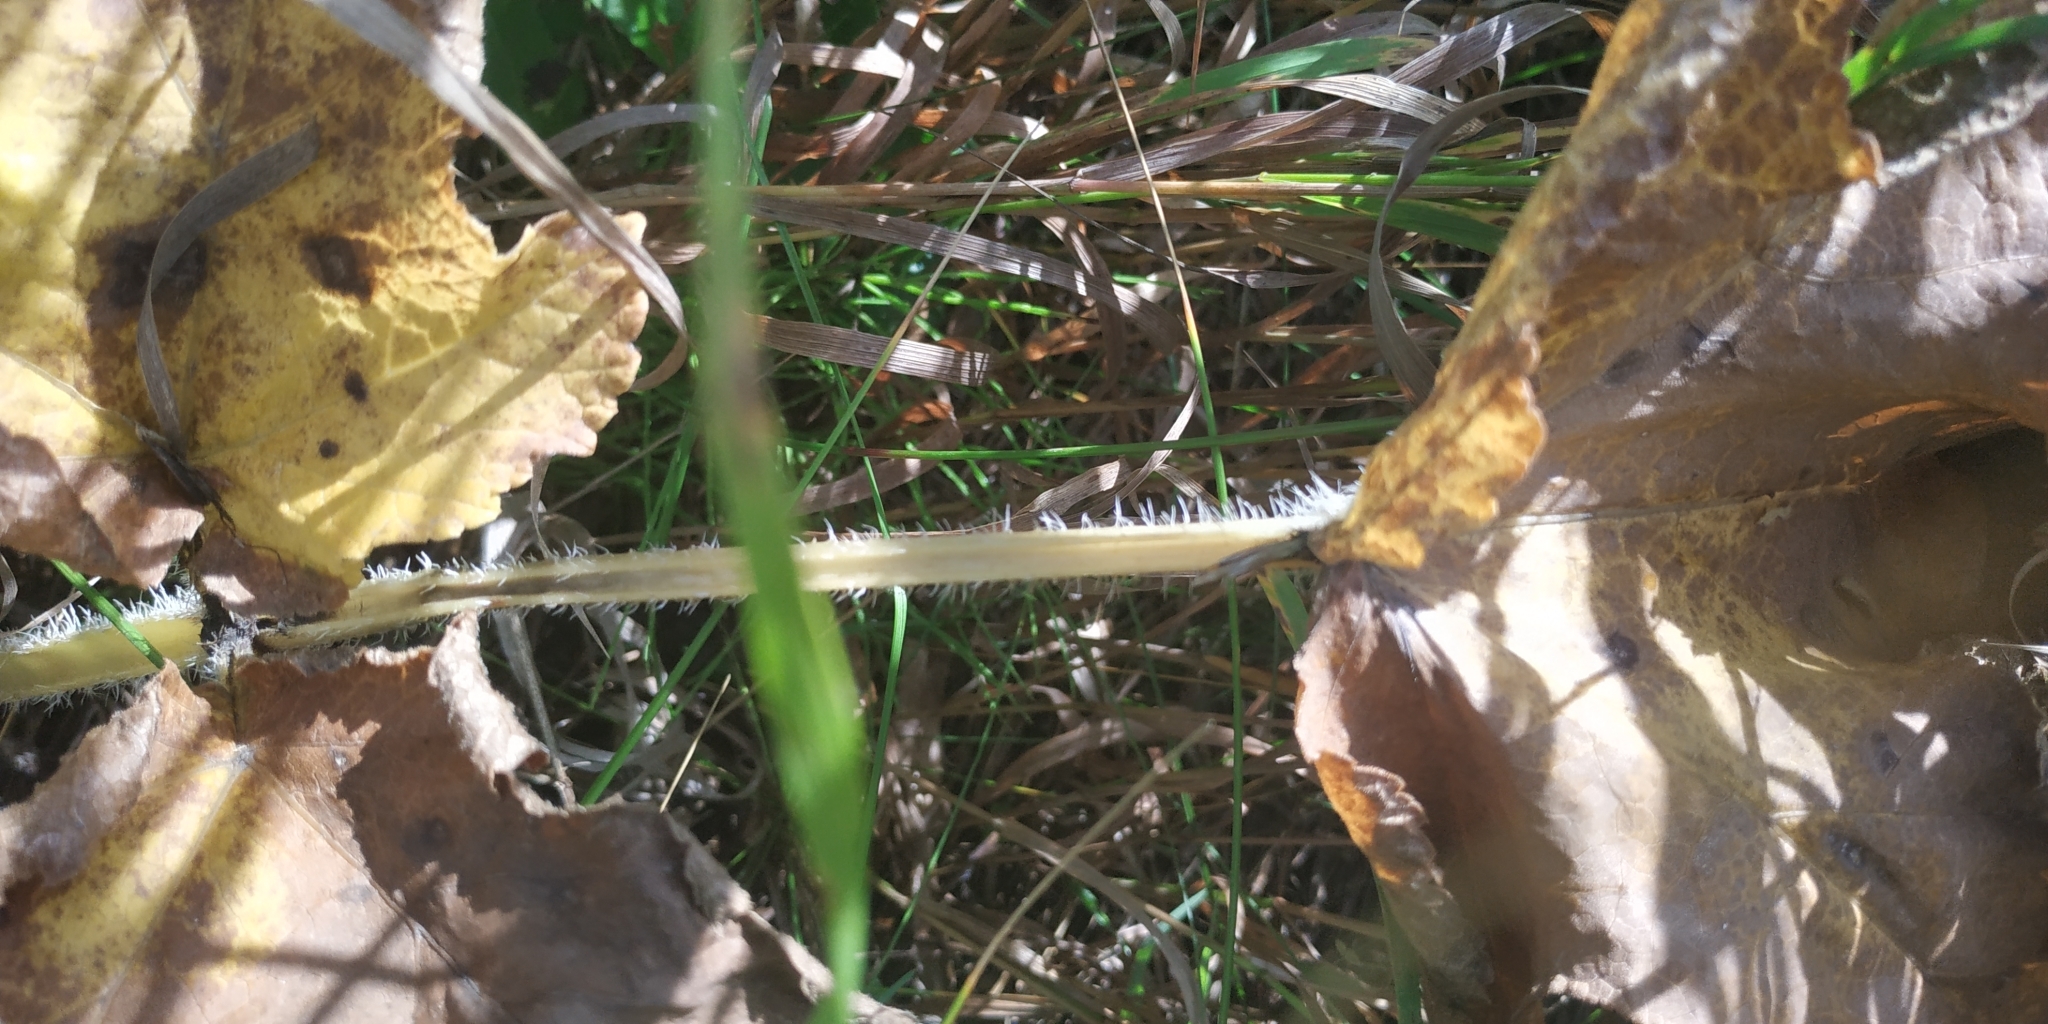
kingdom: Plantae
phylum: Tracheophyta
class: Magnoliopsida
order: Apiales
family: Apiaceae
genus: Heracleum
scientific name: Heracleum sphondylium
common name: Hogweed
